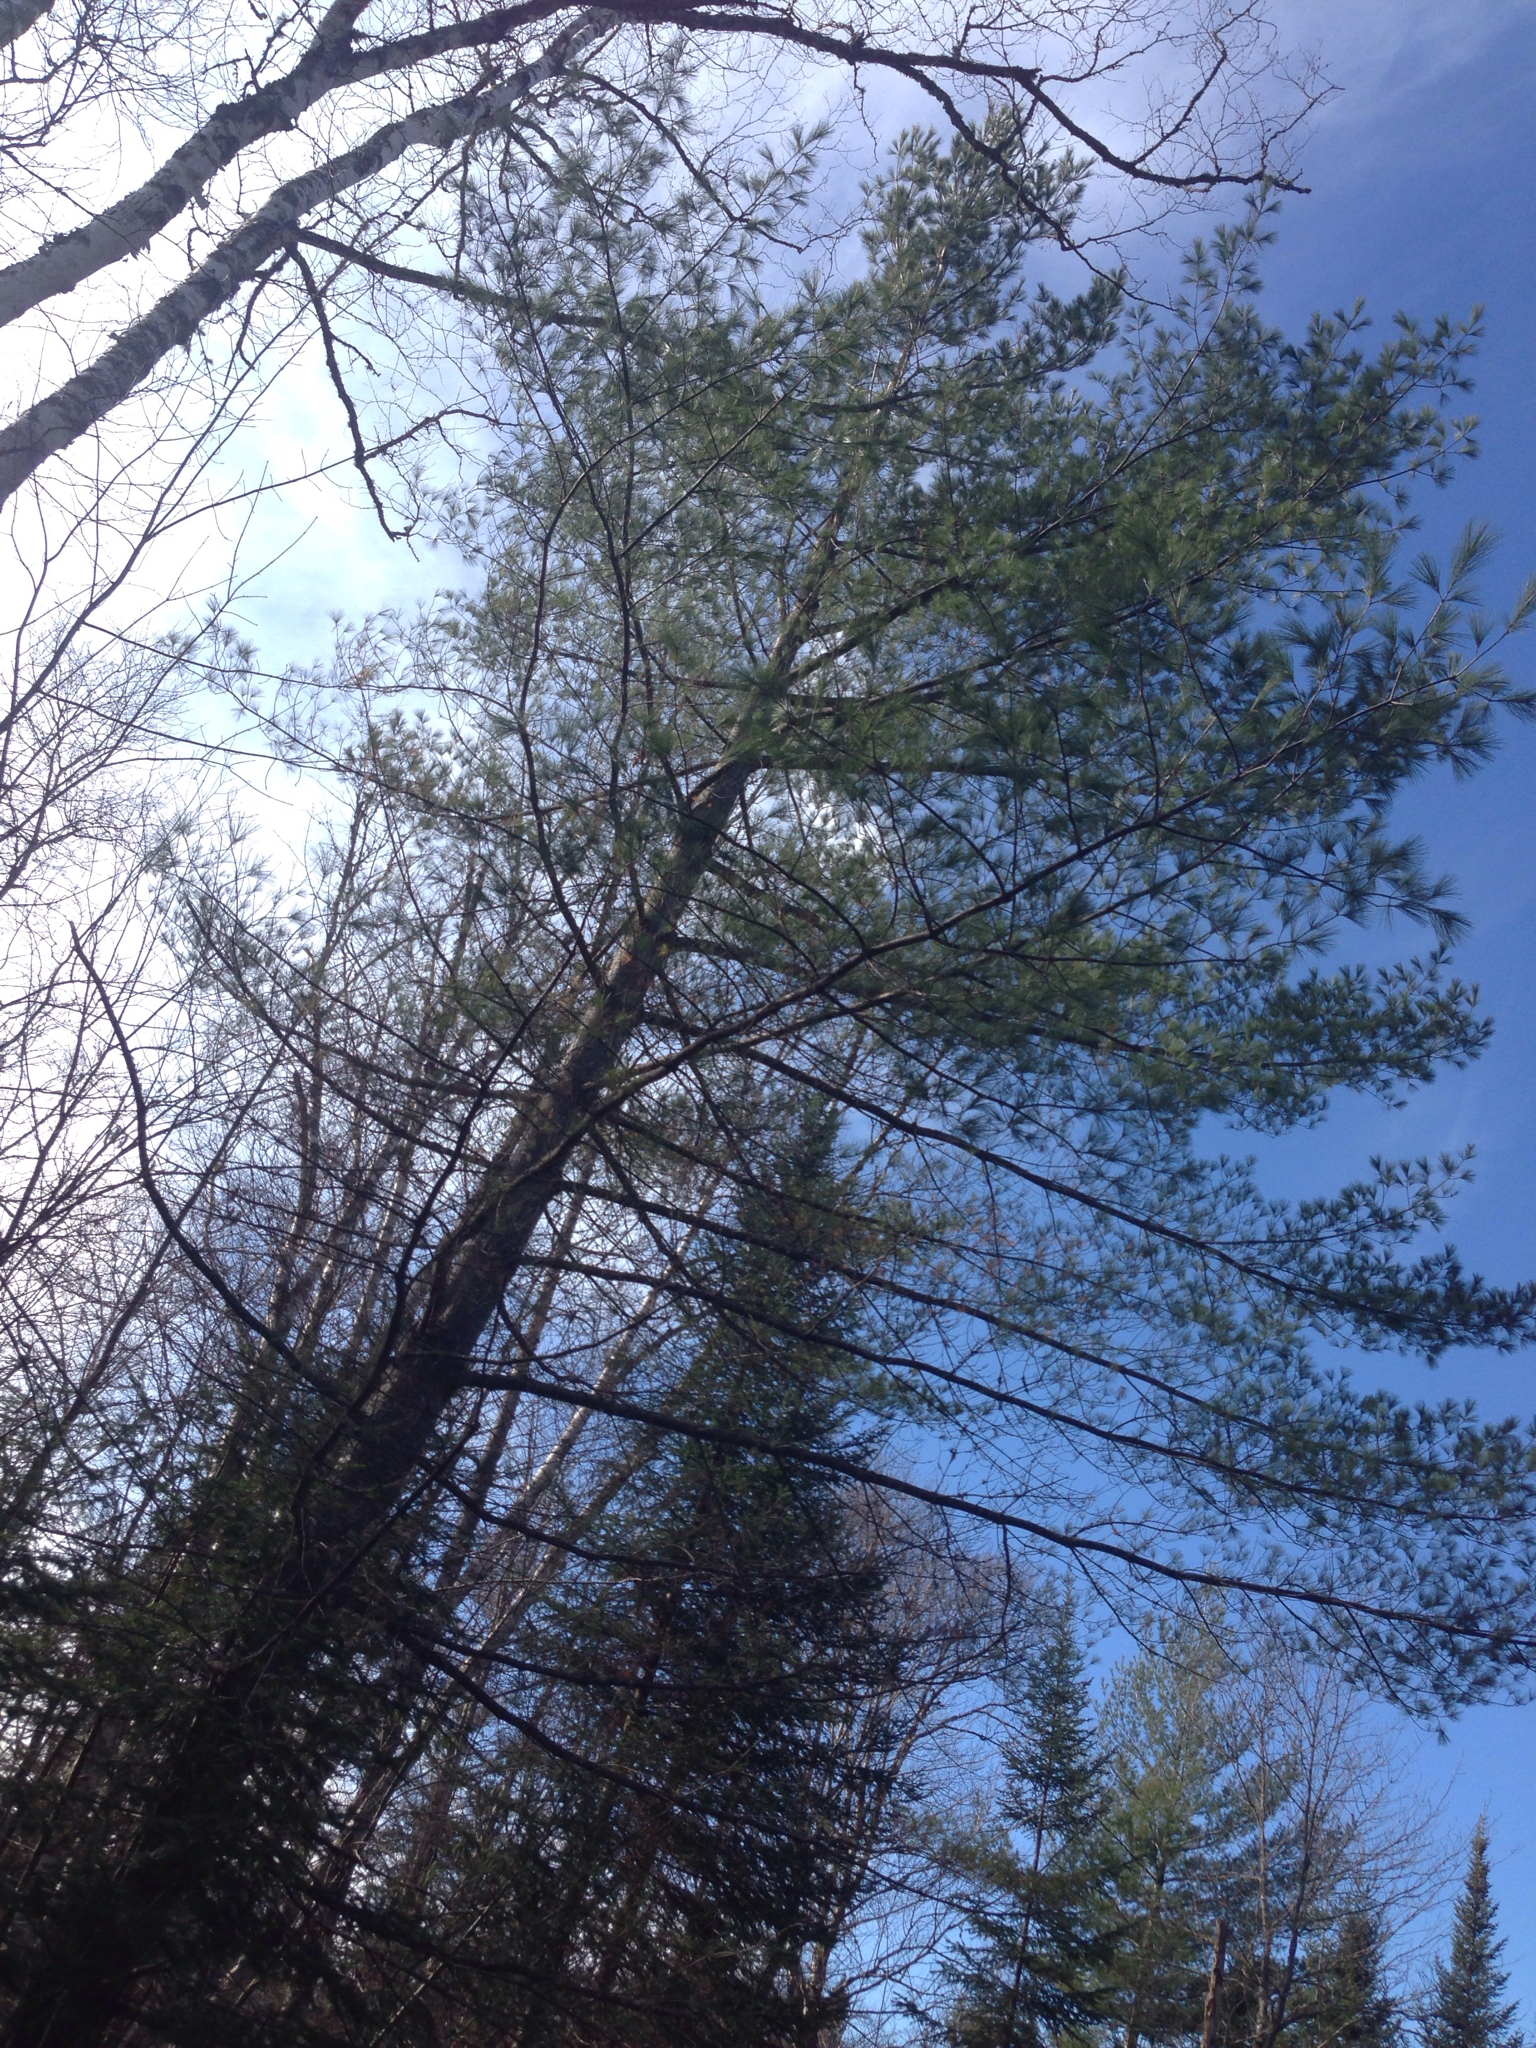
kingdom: Plantae
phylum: Tracheophyta
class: Pinopsida
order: Pinales
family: Pinaceae
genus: Pinus
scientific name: Pinus strobus
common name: Weymouth pine
